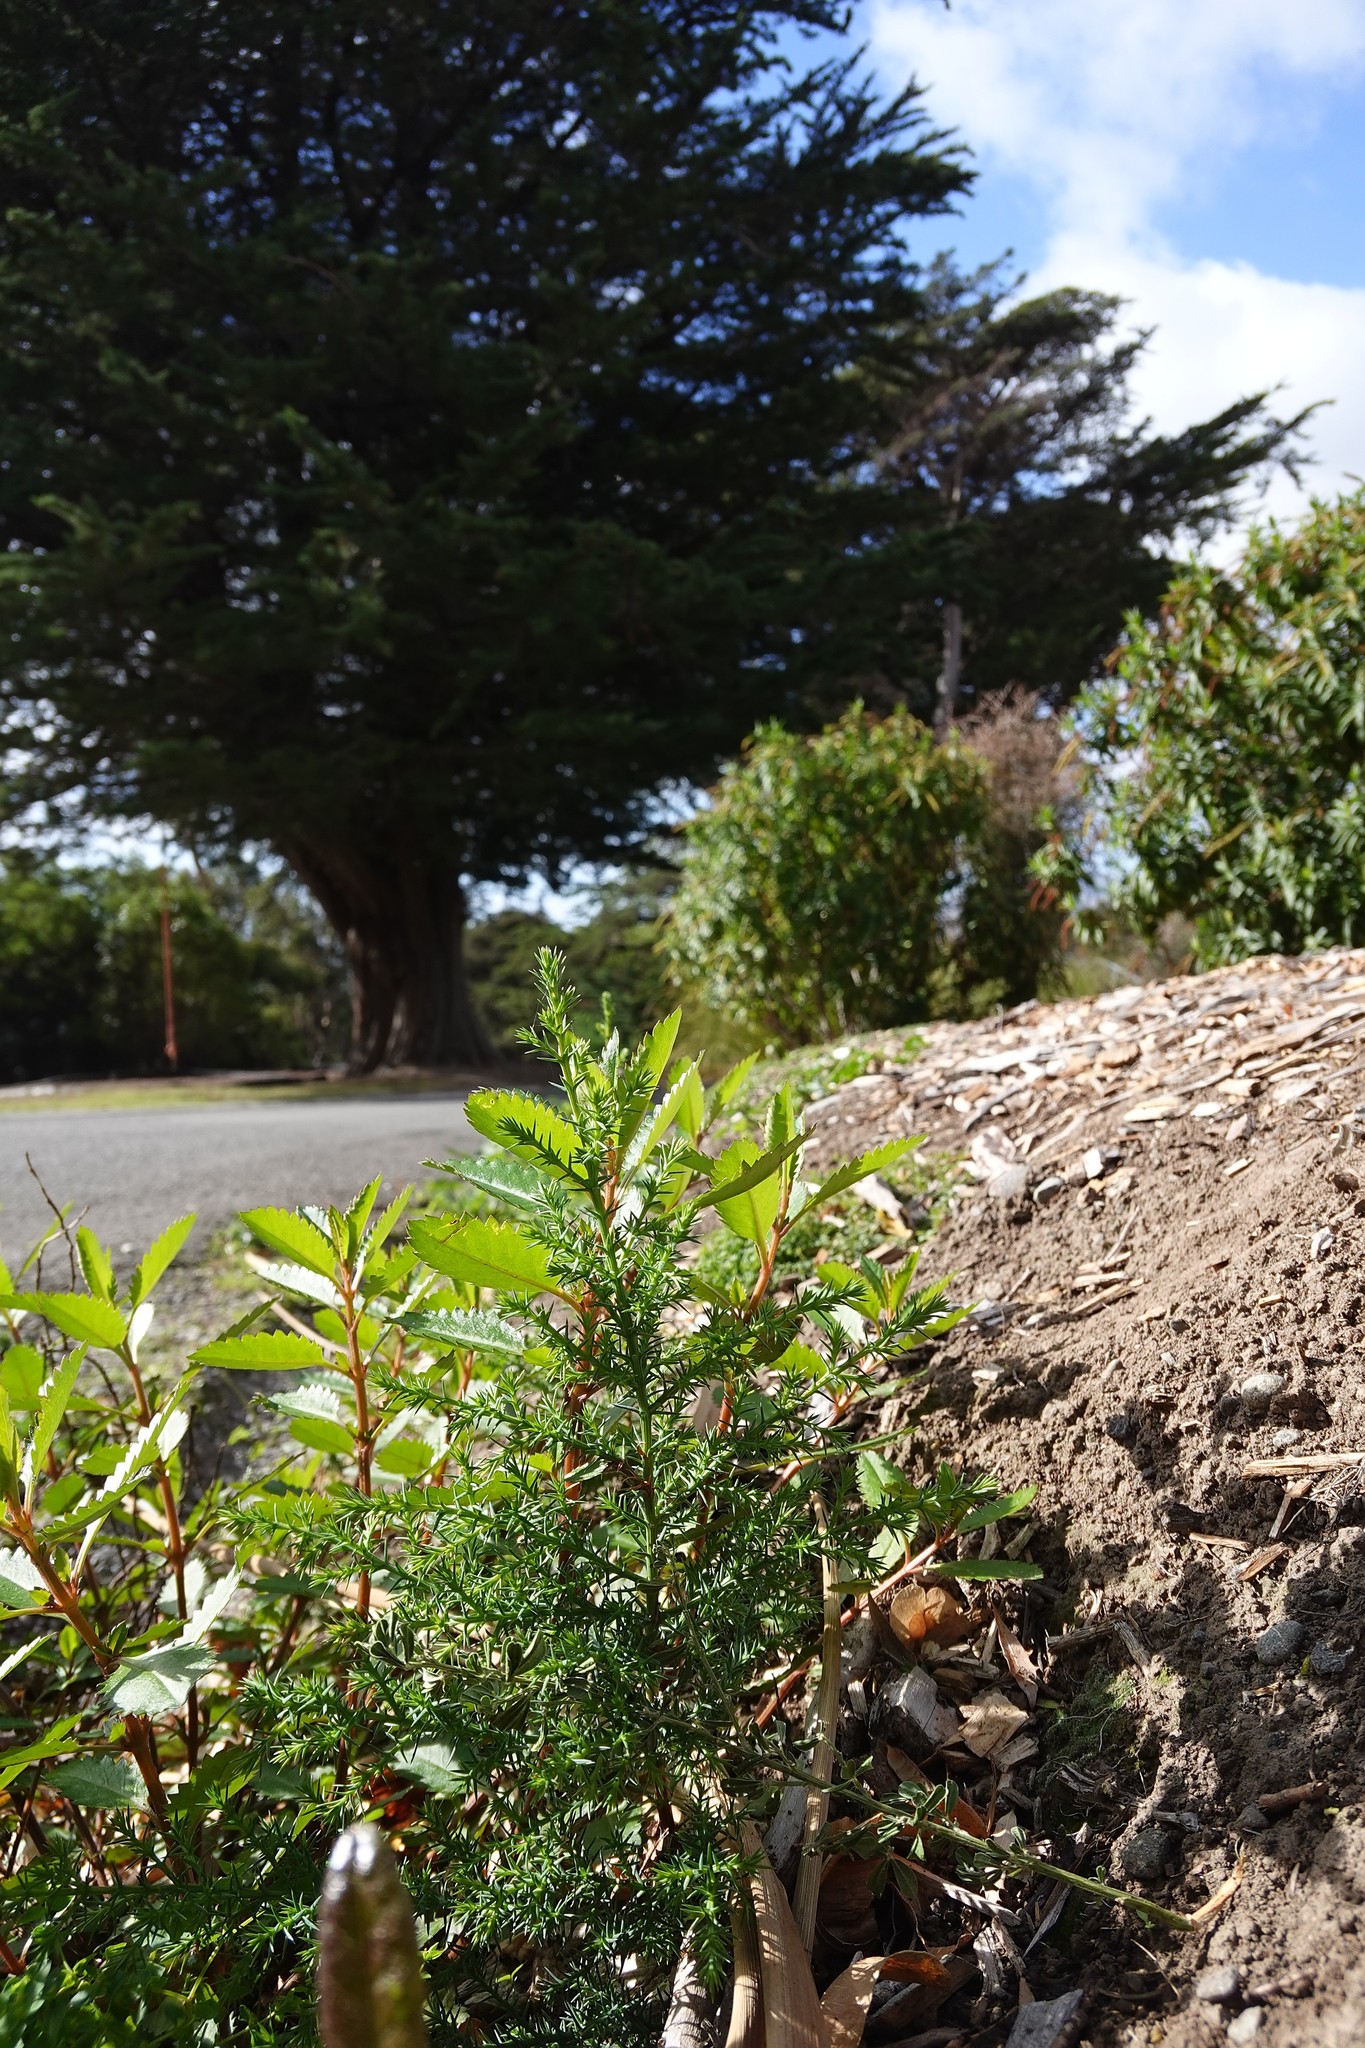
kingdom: Plantae
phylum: Tracheophyta
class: Pinopsida
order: Pinales
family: Cupressaceae
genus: Cupressus
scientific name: Cupressus macrocarpa
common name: Monterey cypress
